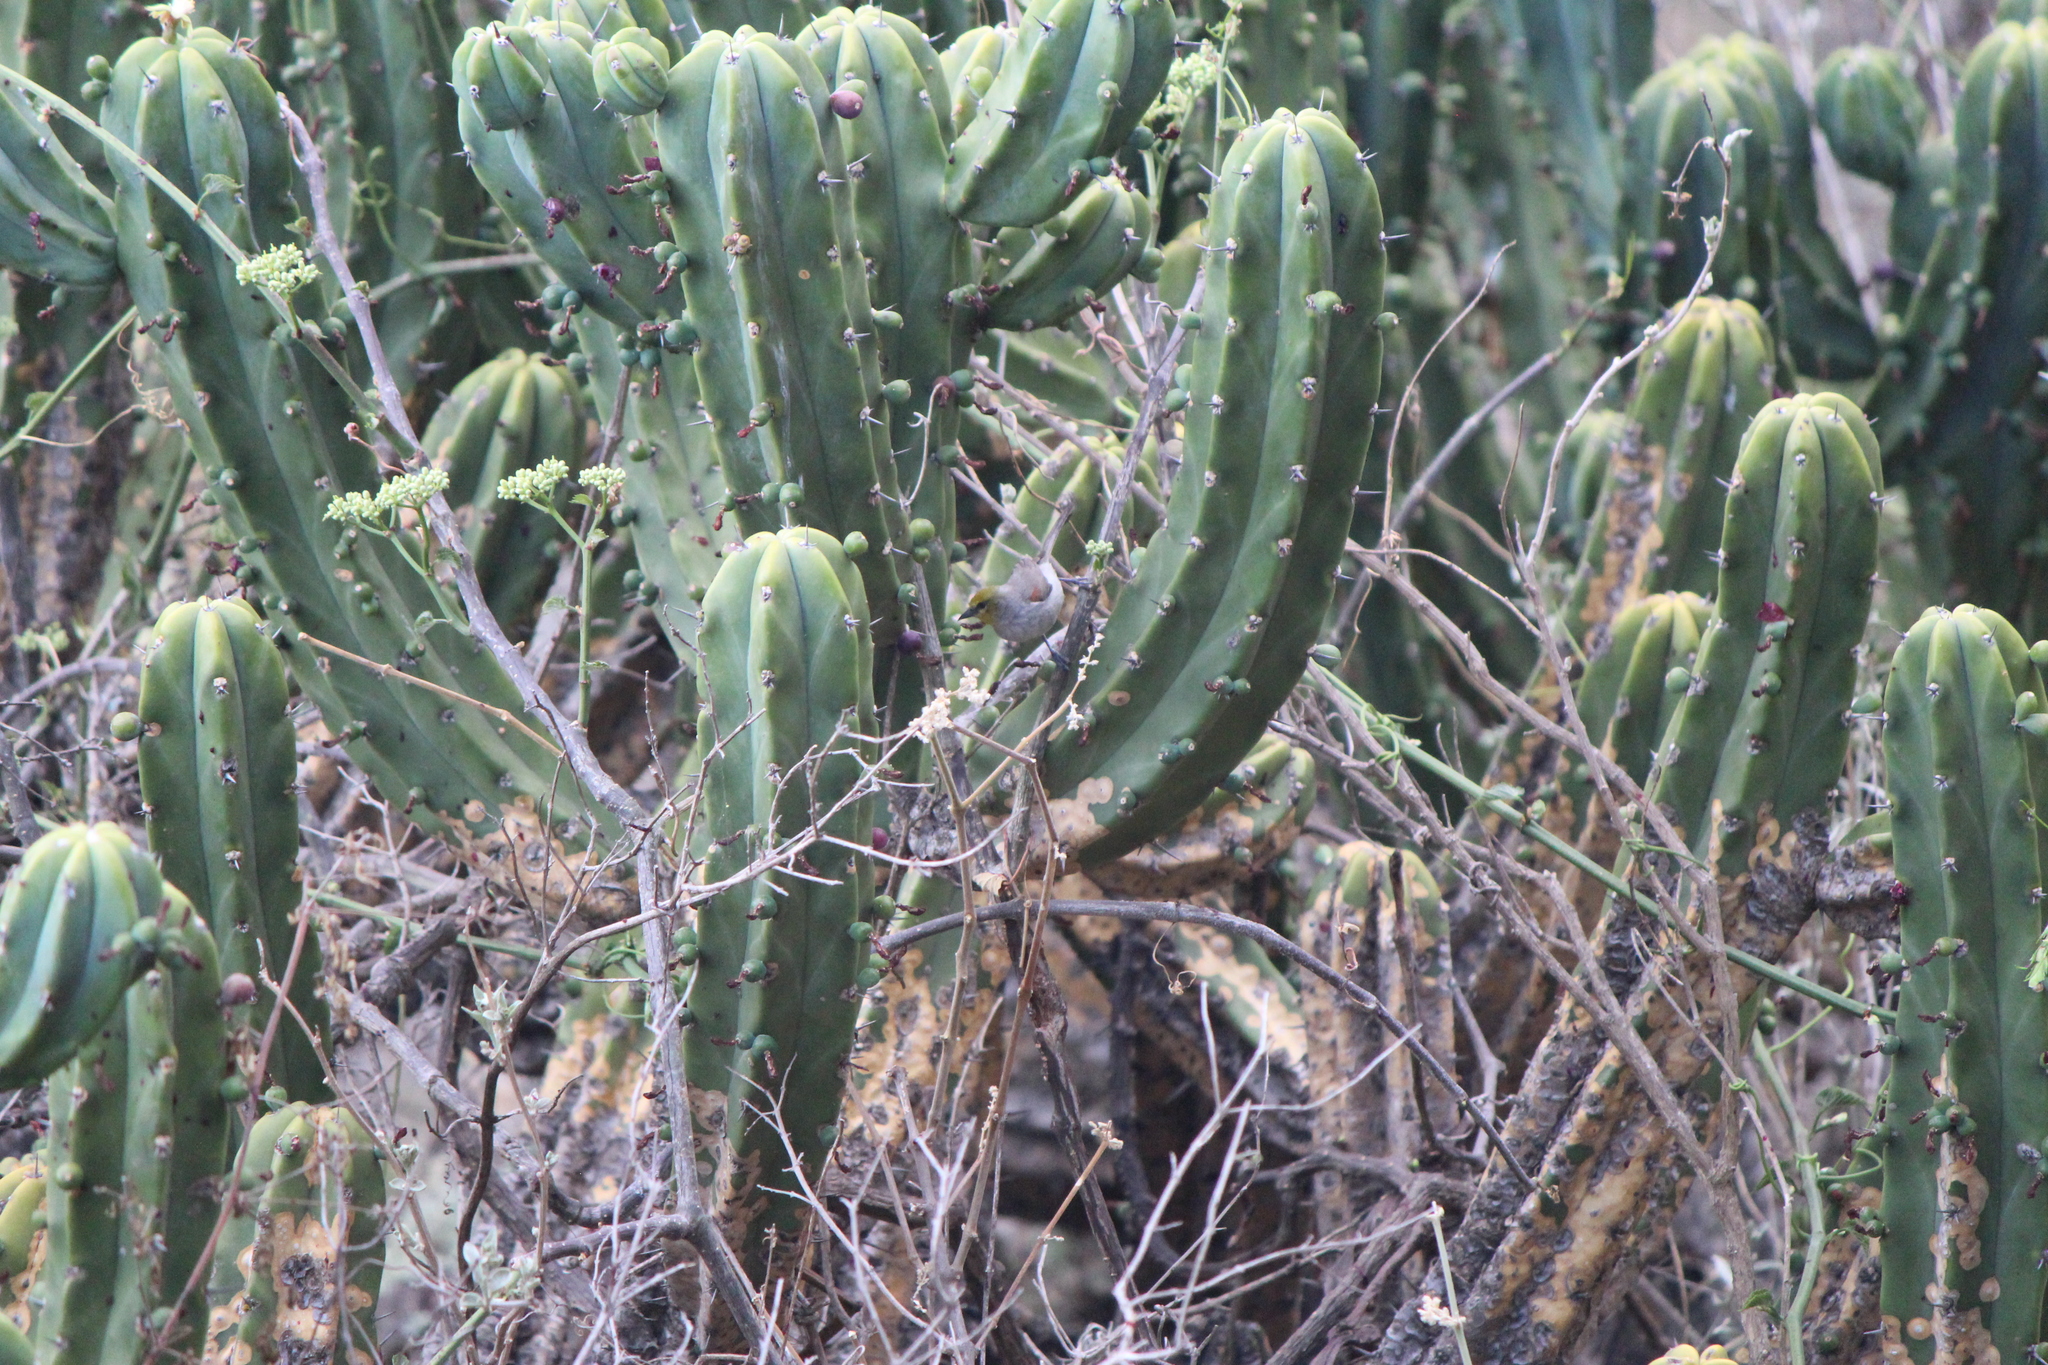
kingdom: Animalia
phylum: Chordata
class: Aves
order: Passeriformes
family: Remizidae
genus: Auriparus
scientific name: Auriparus flaviceps
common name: Verdin
